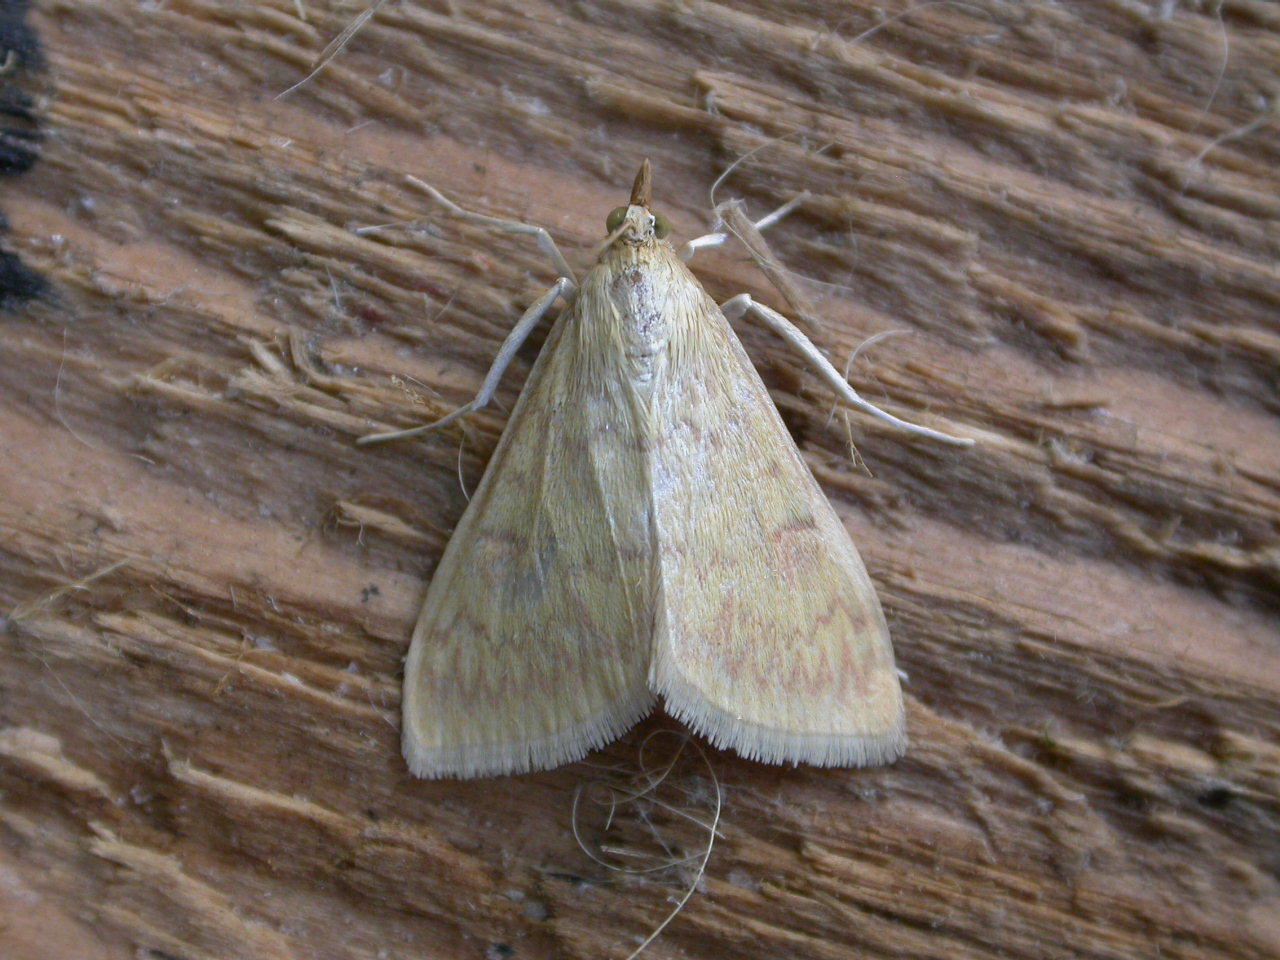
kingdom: Animalia
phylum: Arthropoda
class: Insecta
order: Lepidoptera
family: Crambidae
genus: Ostrinia
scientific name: Ostrinia nubilalis
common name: European corn borer
